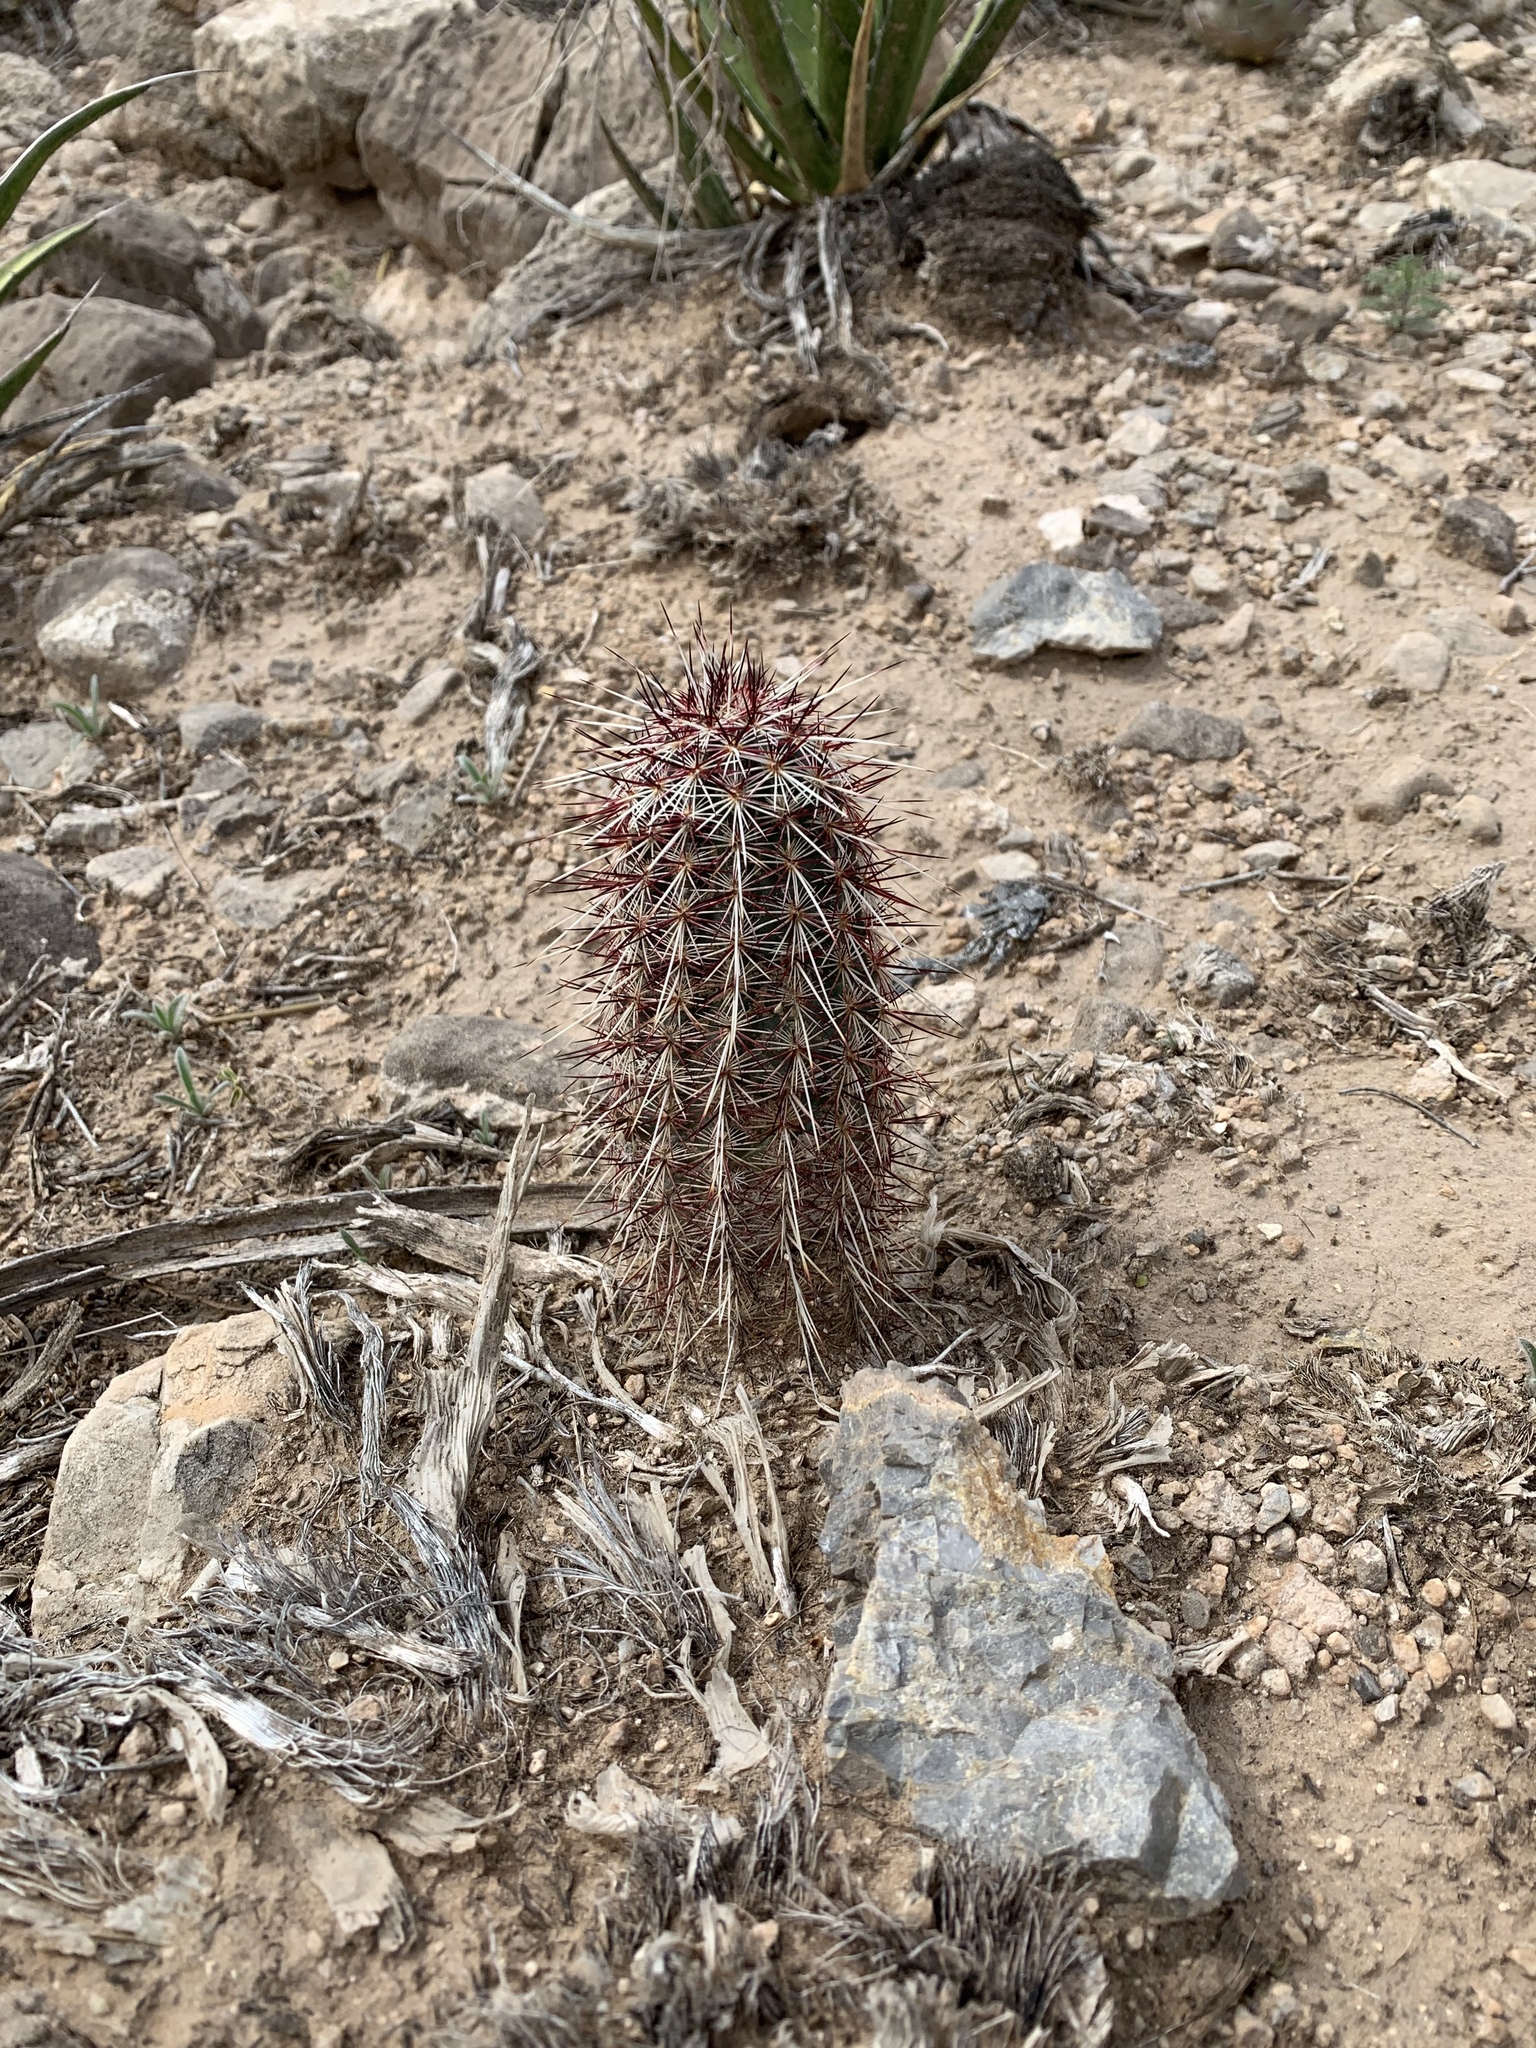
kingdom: Plantae
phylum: Tracheophyta
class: Magnoliopsida
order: Caryophyllales
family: Cactaceae
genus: Echinocereus
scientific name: Echinocereus viridiflorus
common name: Nylon hedgehog cactus
